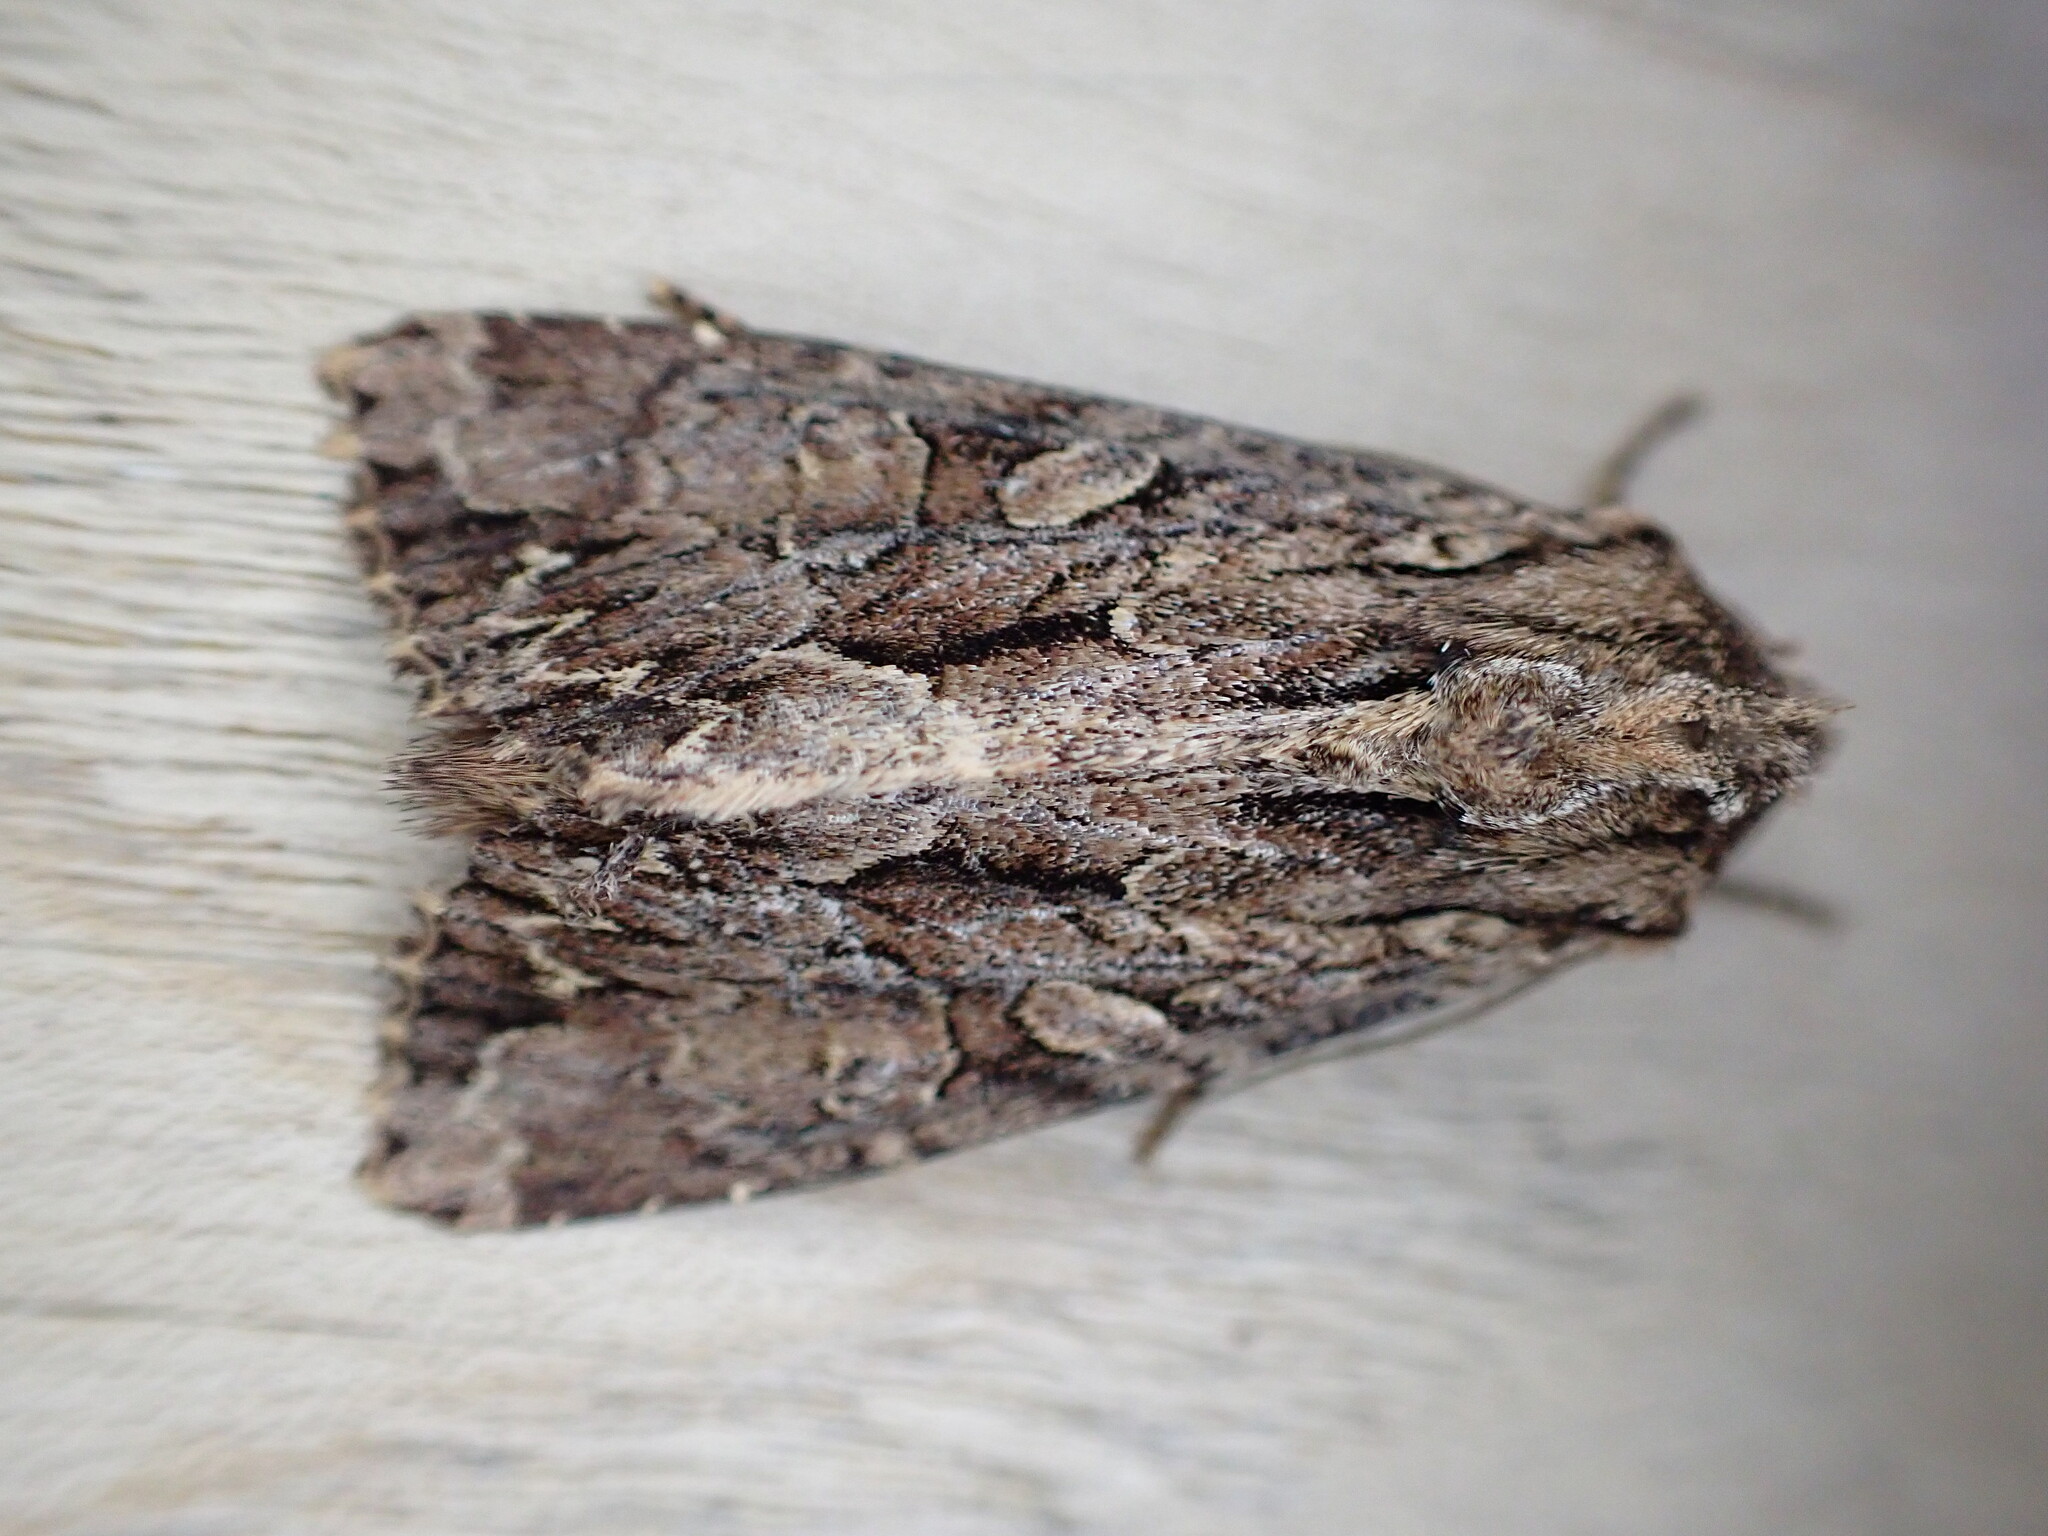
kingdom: Animalia
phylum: Arthropoda
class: Insecta
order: Lepidoptera
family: Noctuidae
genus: Apamea
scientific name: Apamea monoglypha
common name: Dark arches
